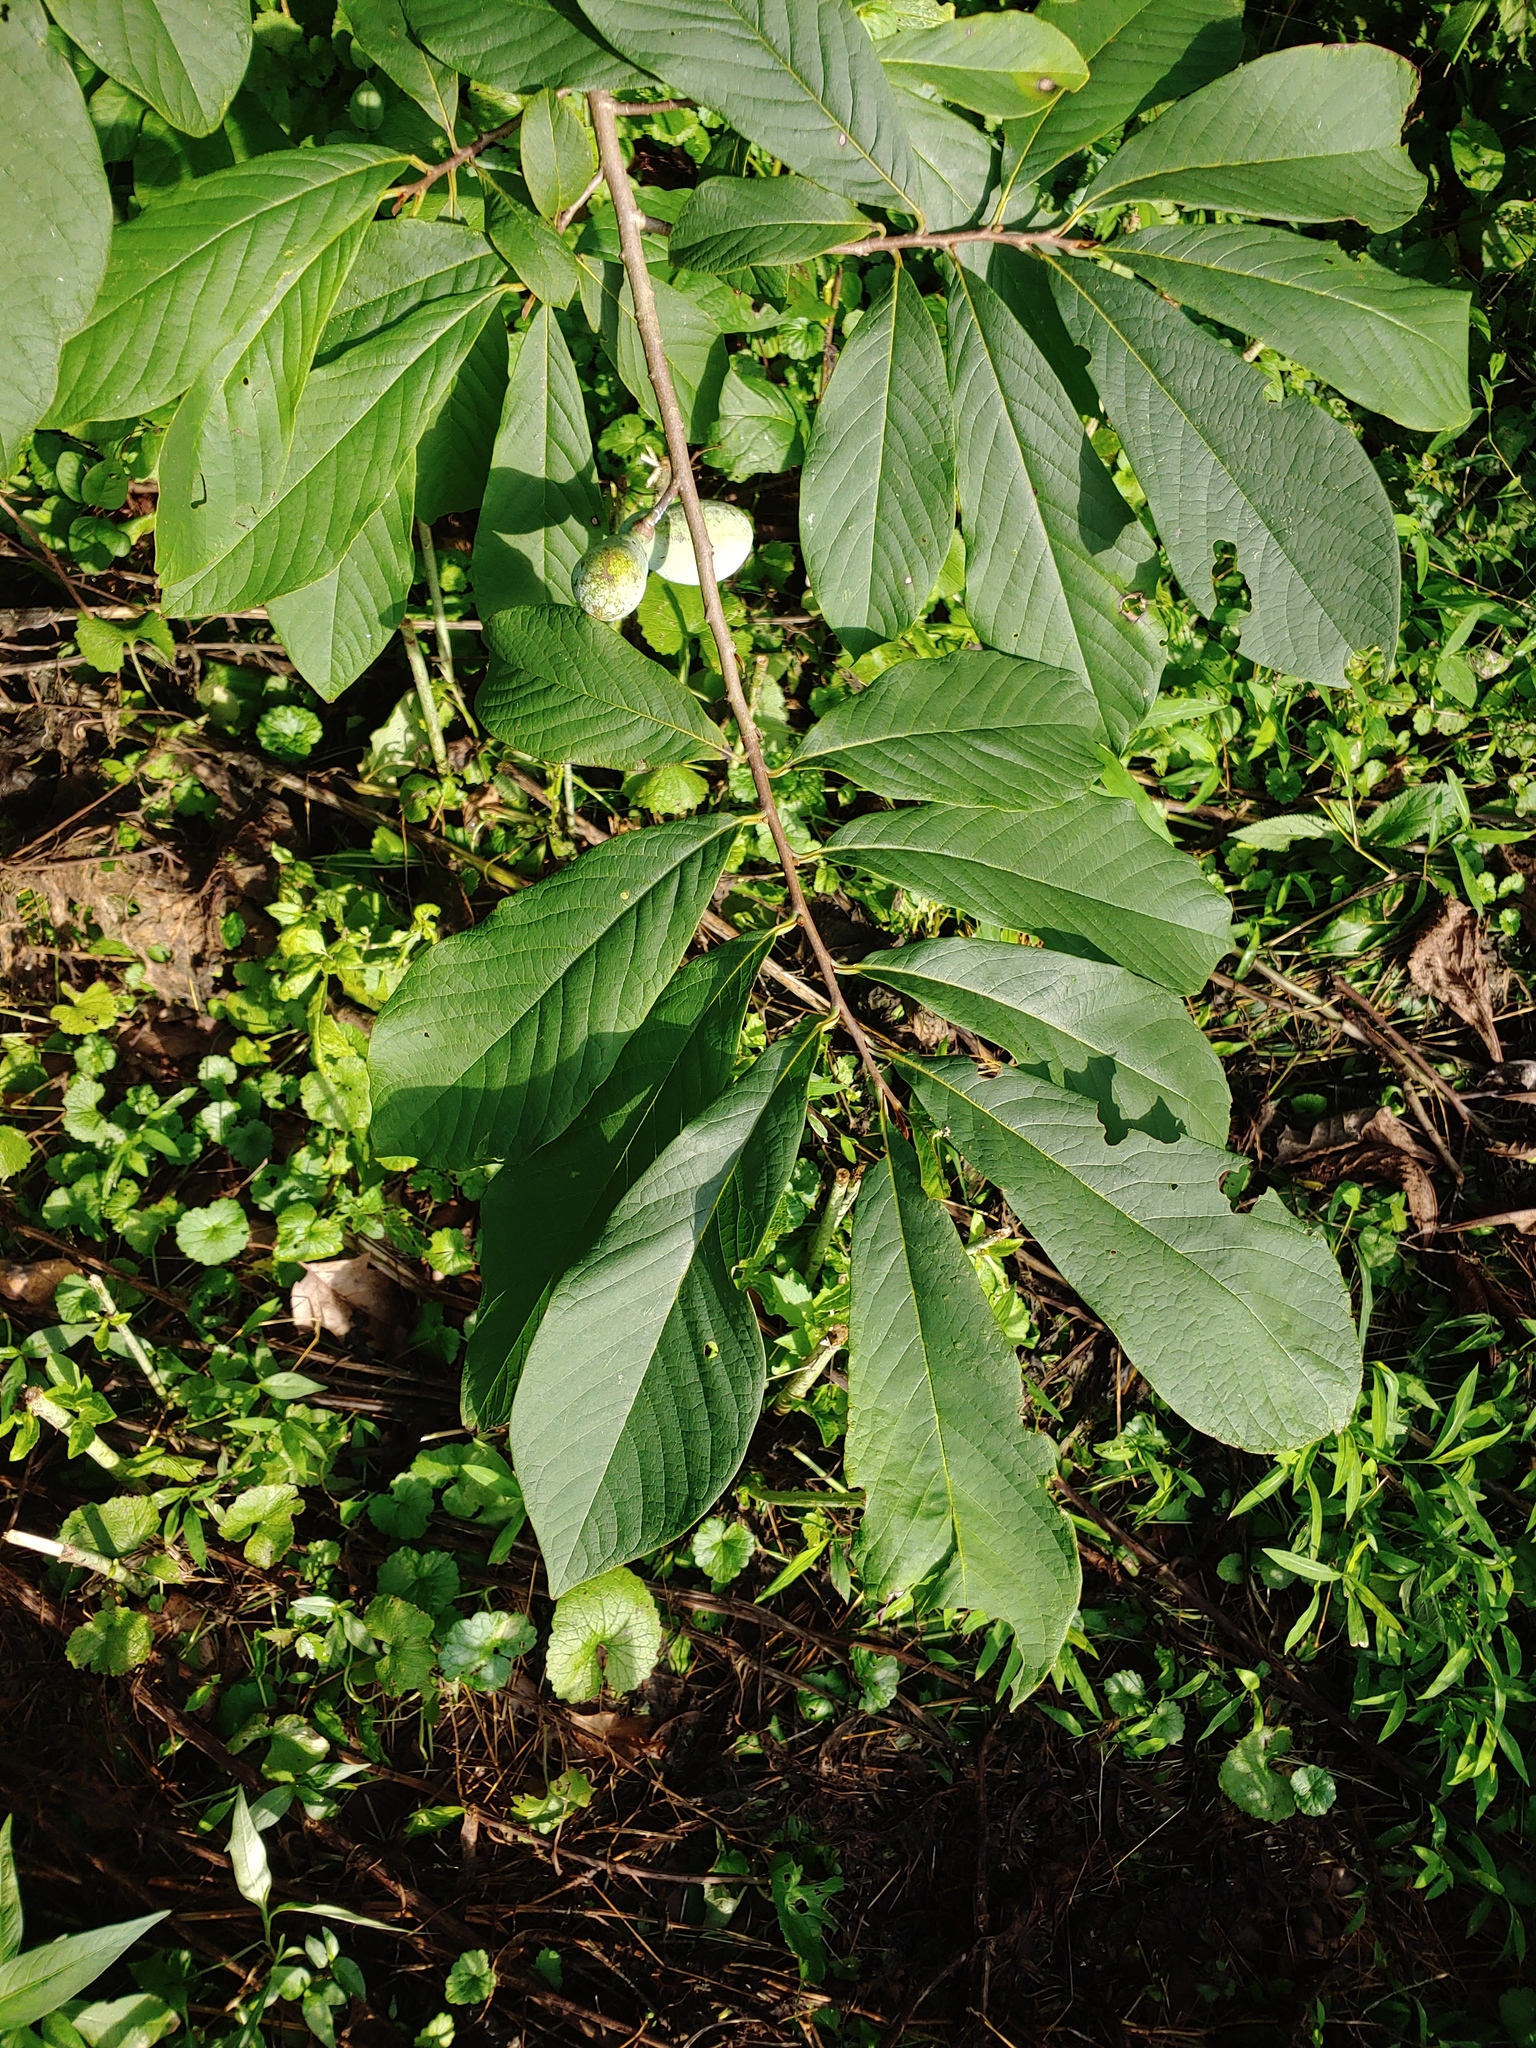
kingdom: Plantae
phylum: Tracheophyta
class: Magnoliopsida
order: Magnoliales
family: Annonaceae
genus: Asimina
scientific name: Asimina triloba
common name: Dog-banana
